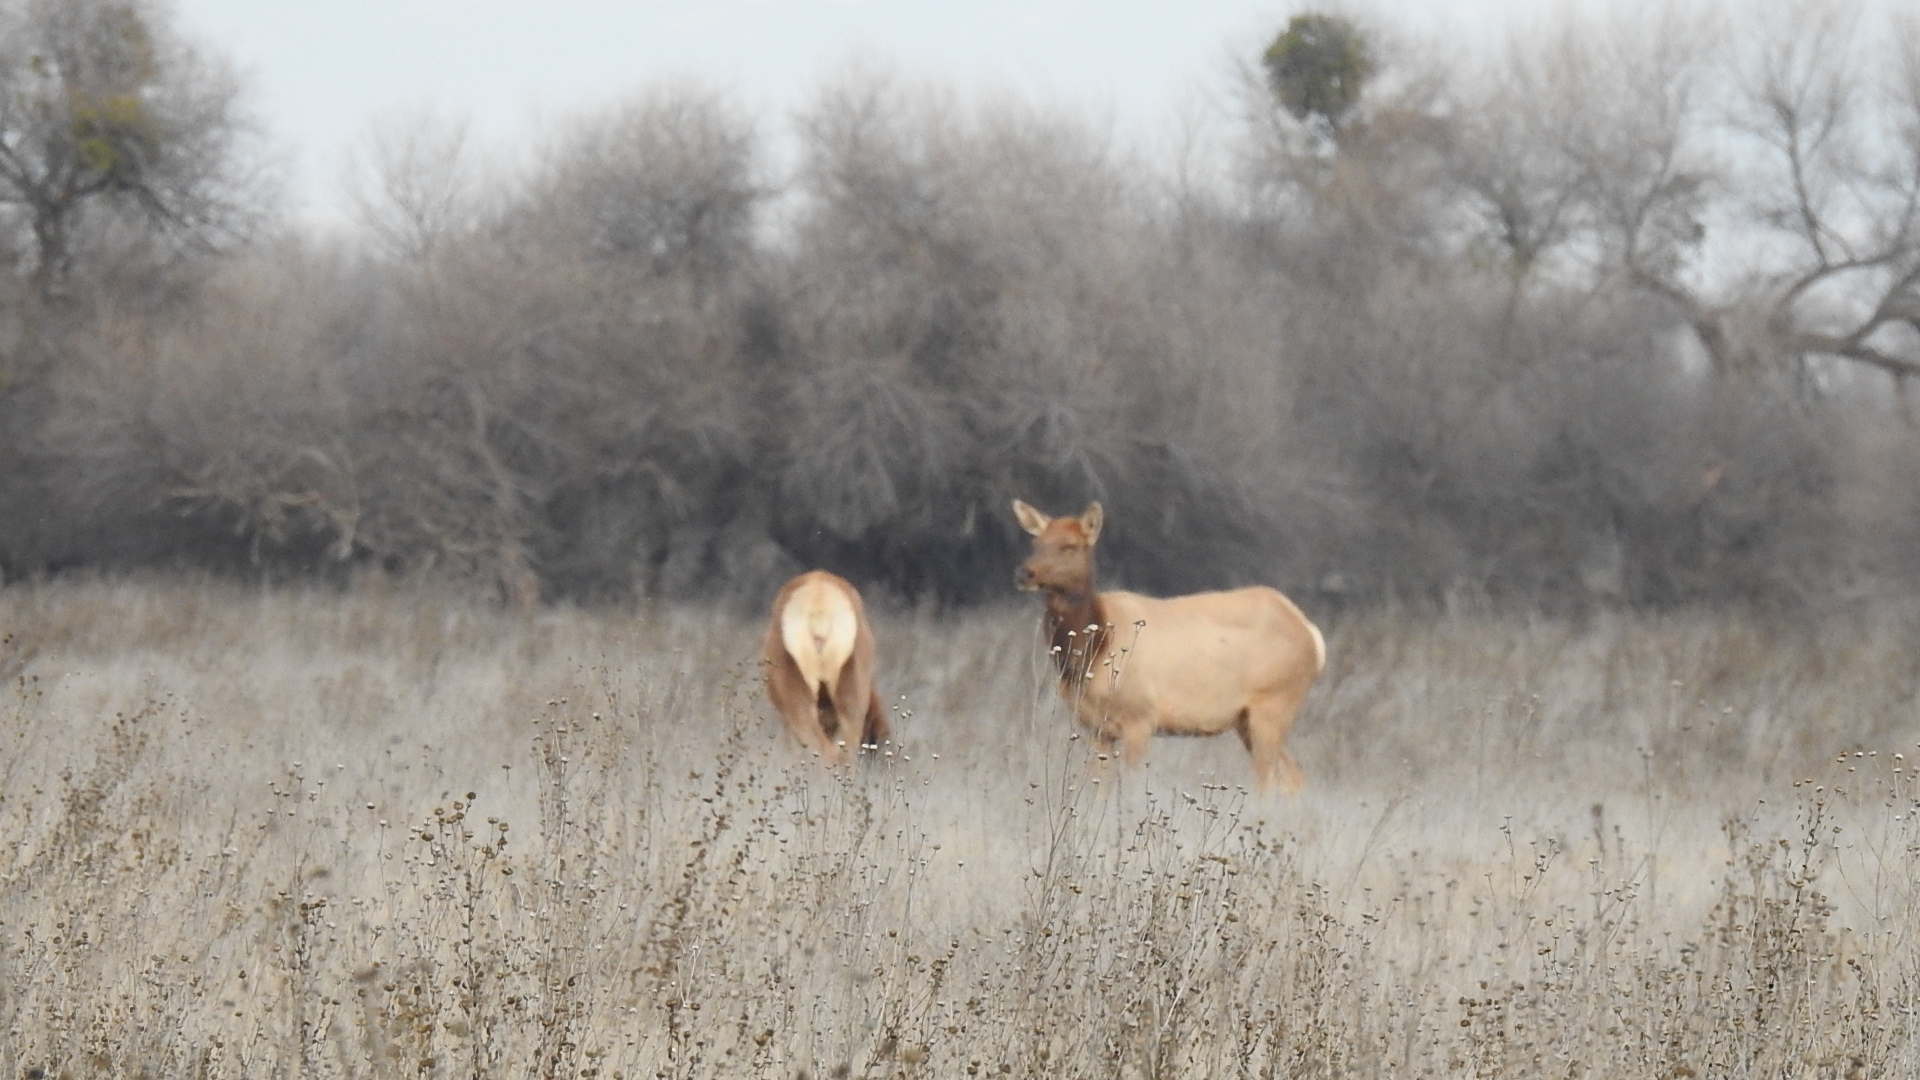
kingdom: Animalia
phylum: Chordata
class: Mammalia
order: Artiodactyla
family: Cervidae
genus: Cervus
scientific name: Cervus elaphus
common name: Red deer
